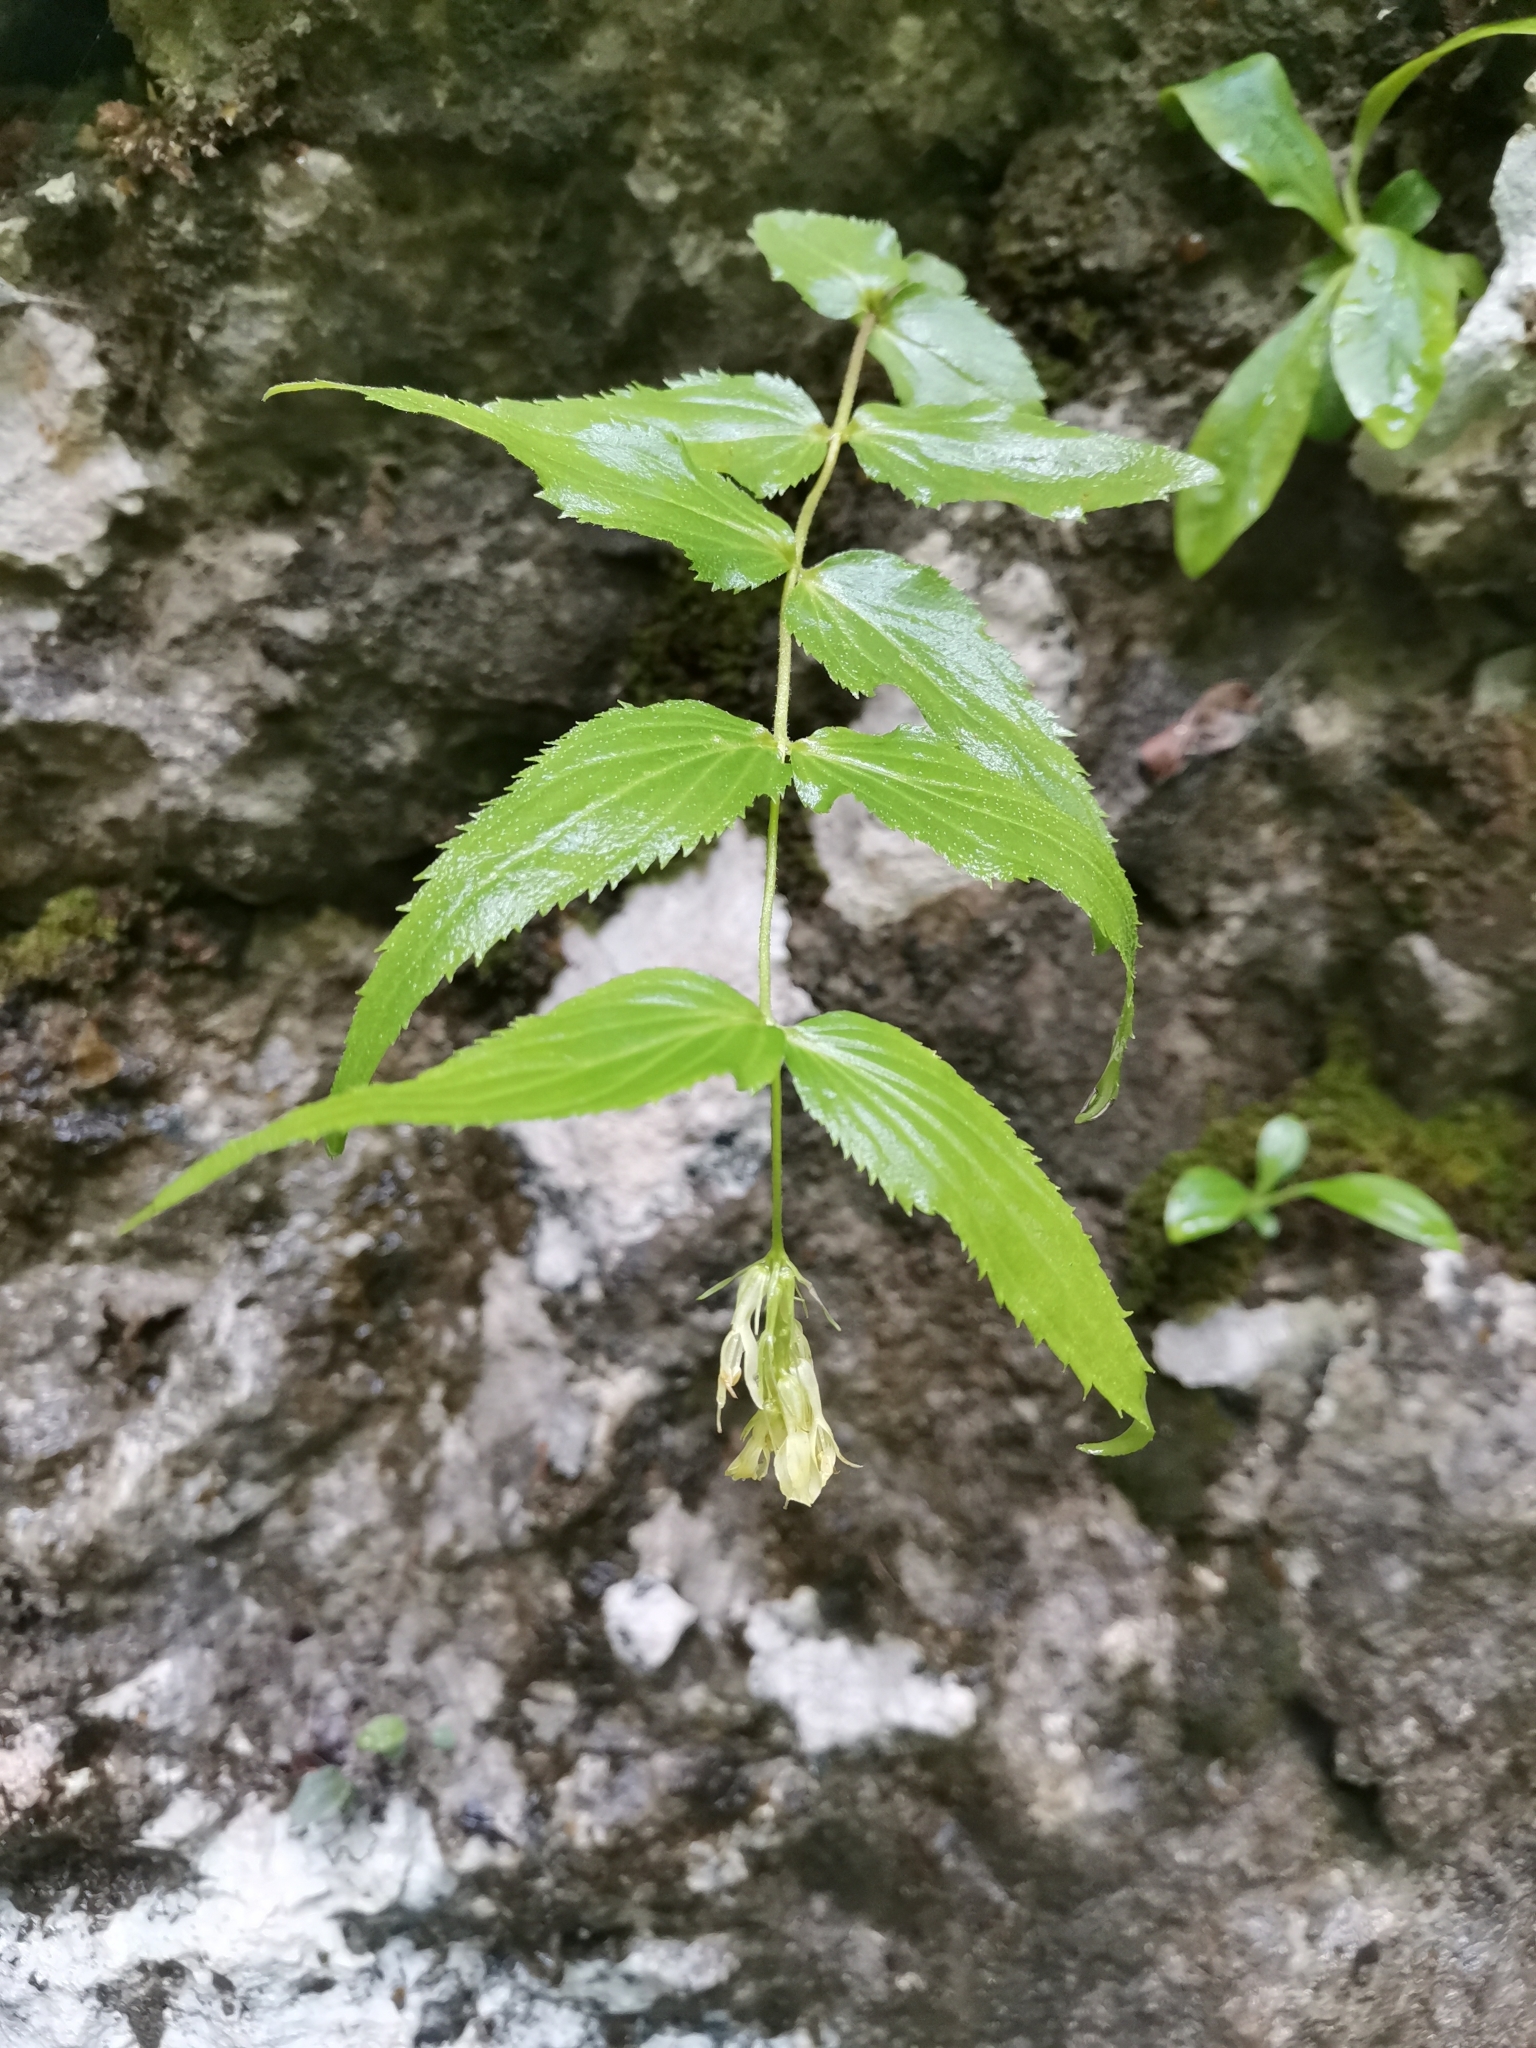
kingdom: Plantae
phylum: Tracheophyta
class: Magnoliopsida
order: Lamiales
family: Plantaginaceae
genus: Paederota
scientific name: Paederota lutea
